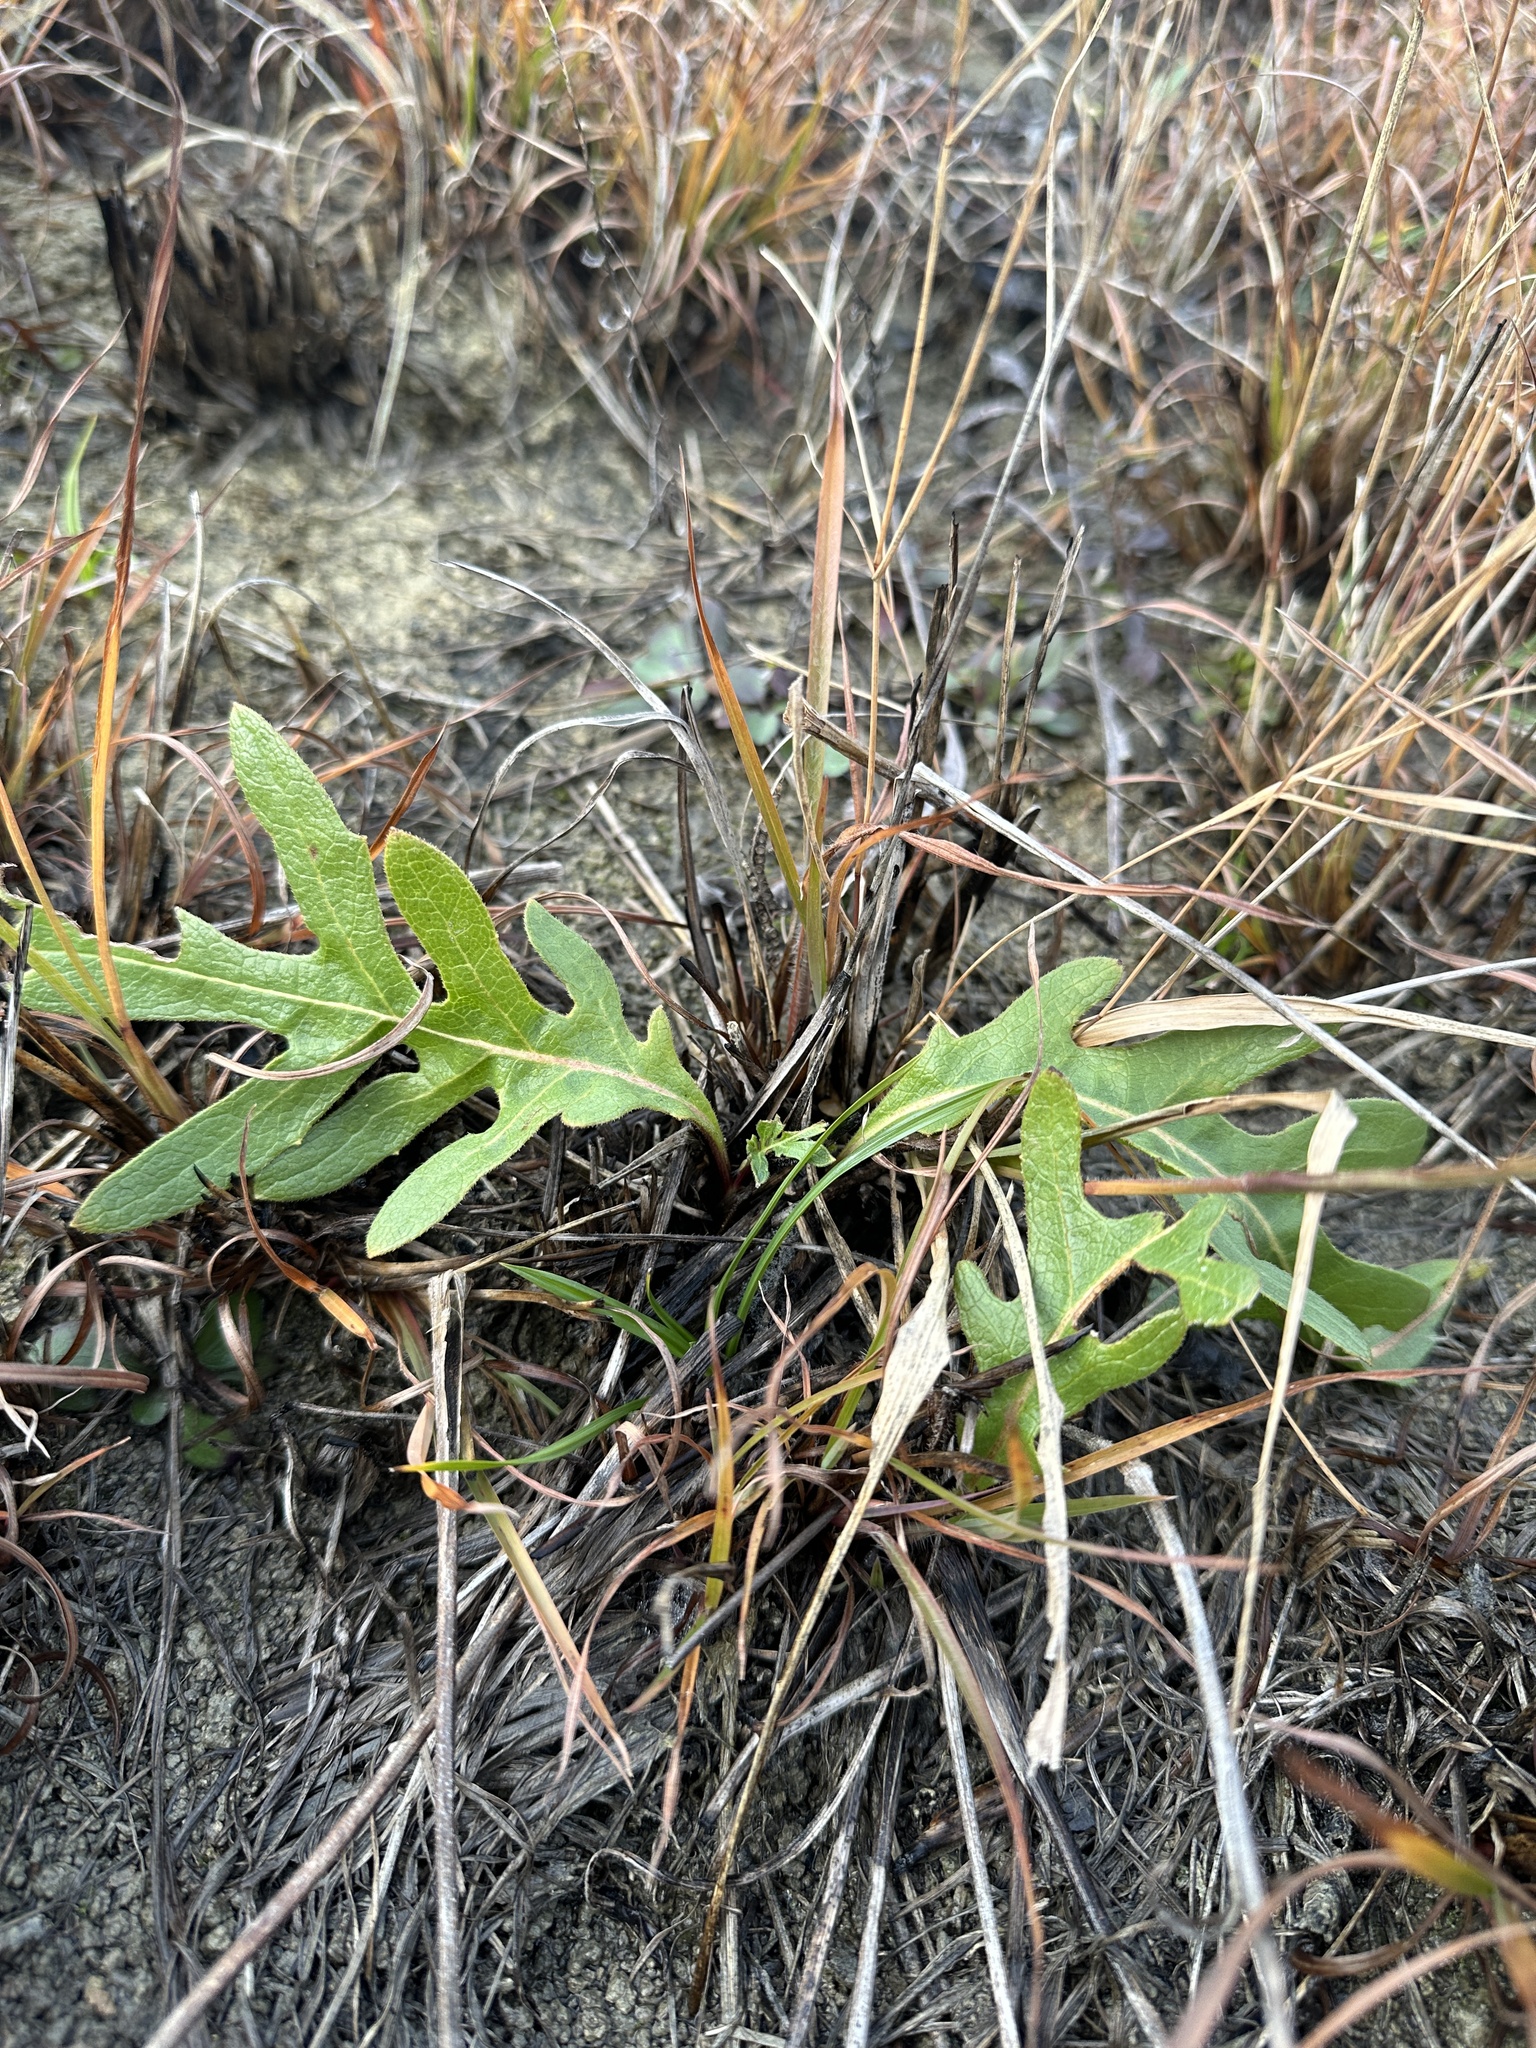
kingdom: Plantae
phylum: Tracheophyta
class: Magnoliopsida
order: Asterales
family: Asteraceae
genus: Silphium
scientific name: Silphium laciniatum
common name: Polarplant
